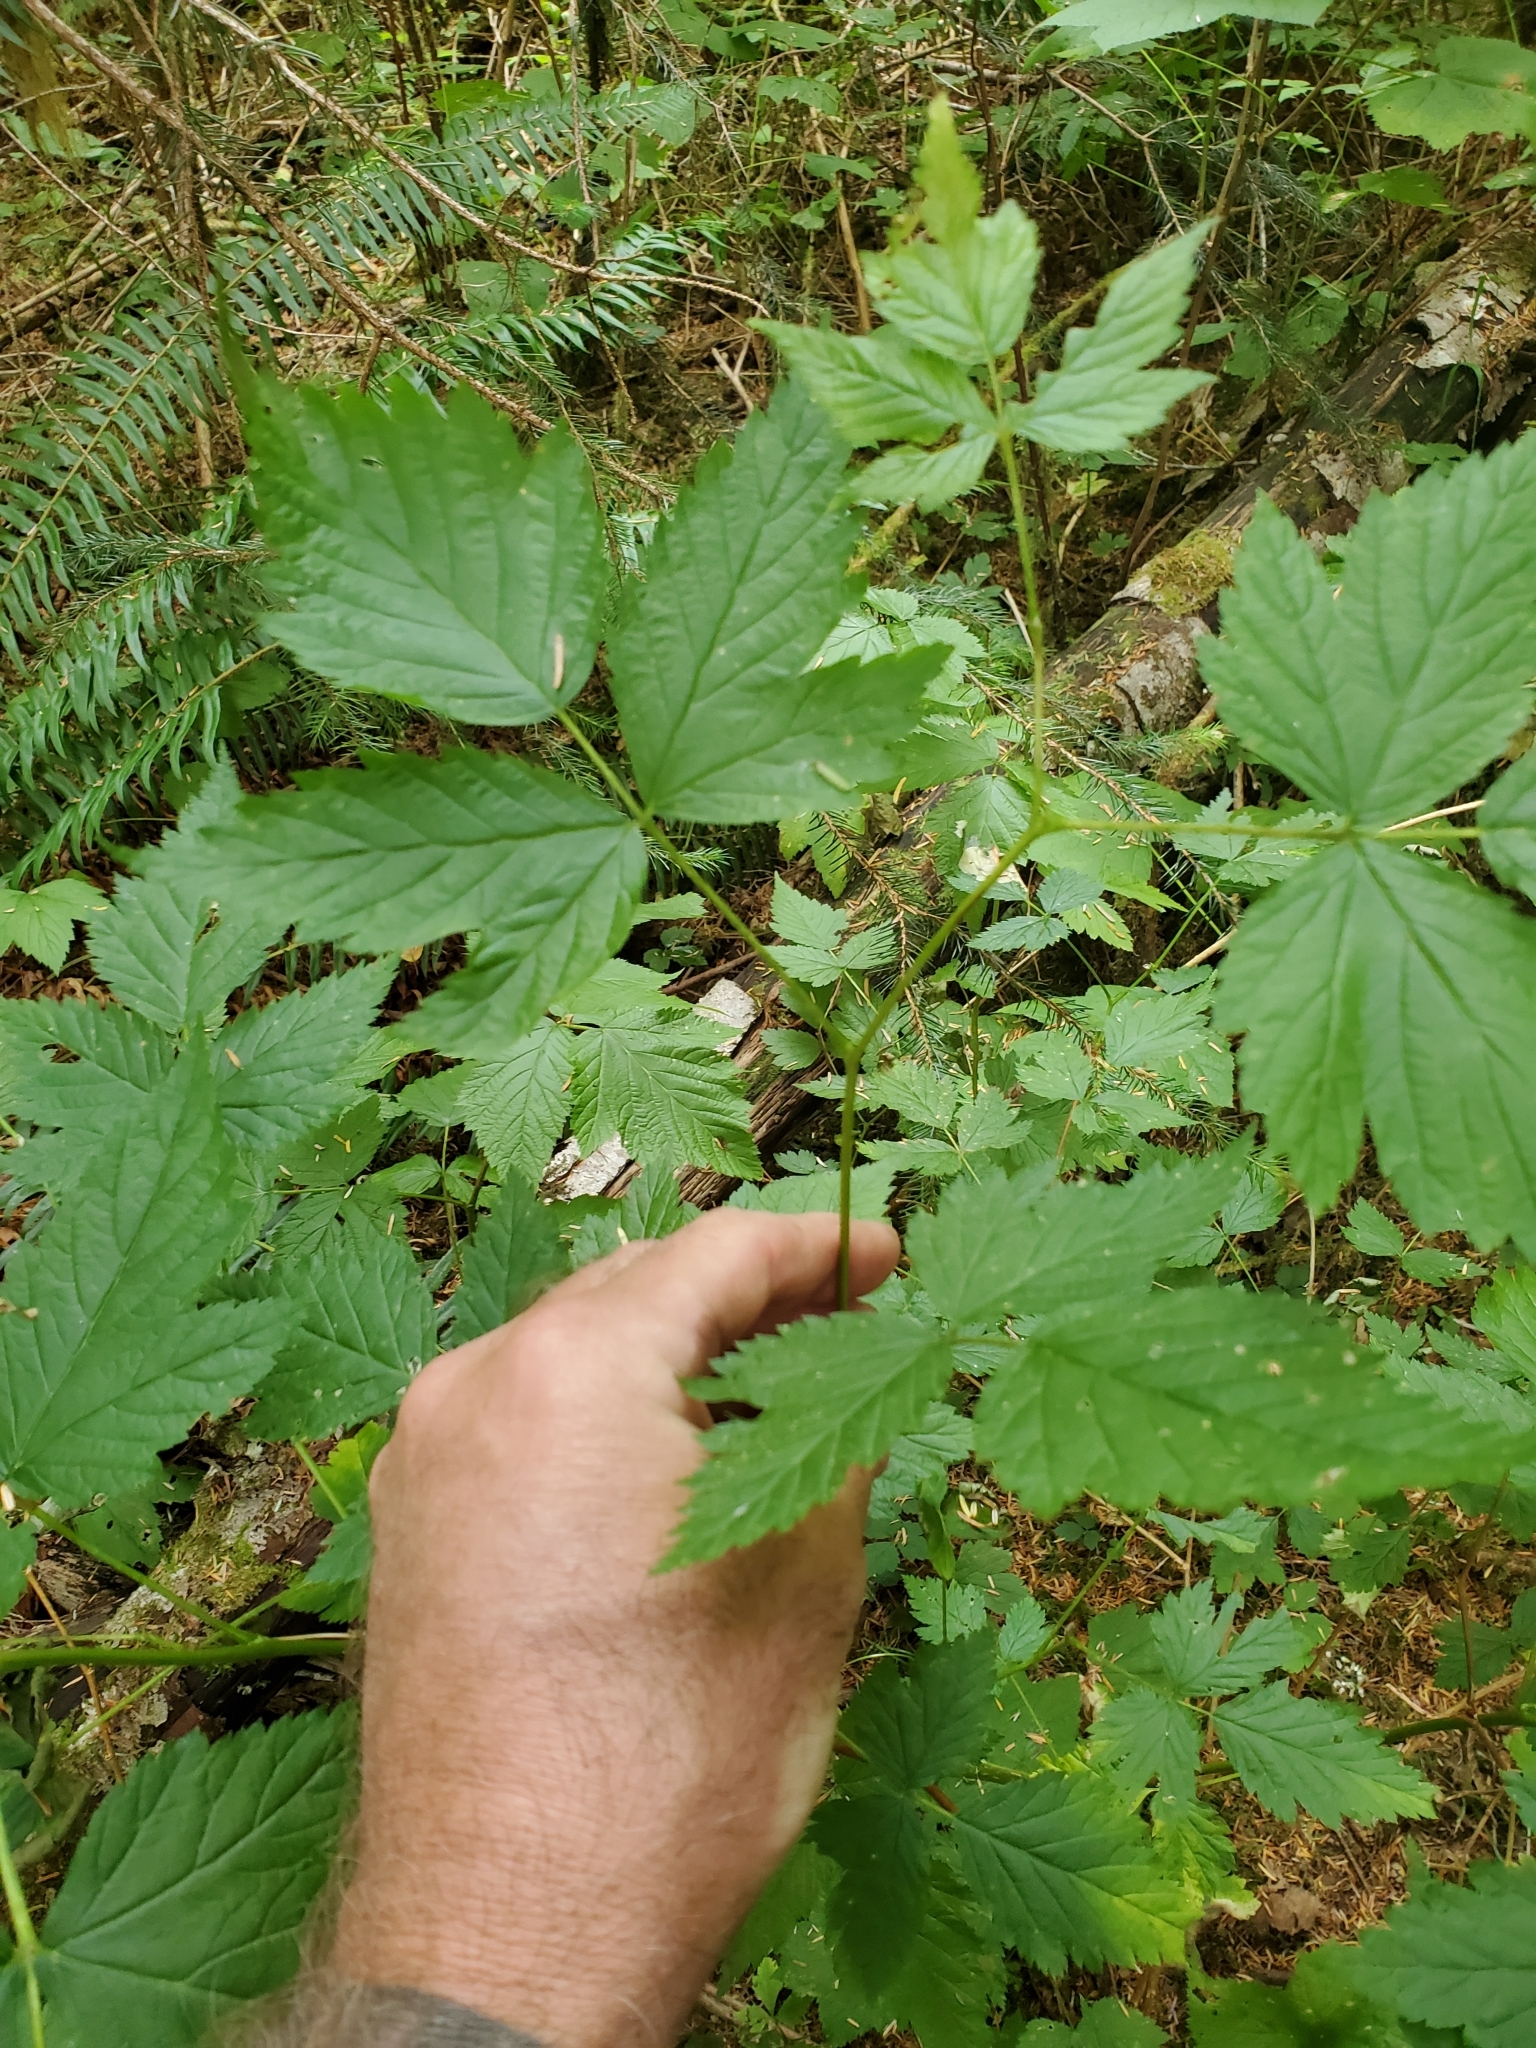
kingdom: Plantae
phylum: Tracheophyta
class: Magnoliopsida
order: Rosales
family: Rosaceae
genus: Rubus
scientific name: Rubus spectabilis
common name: Salmonberry
